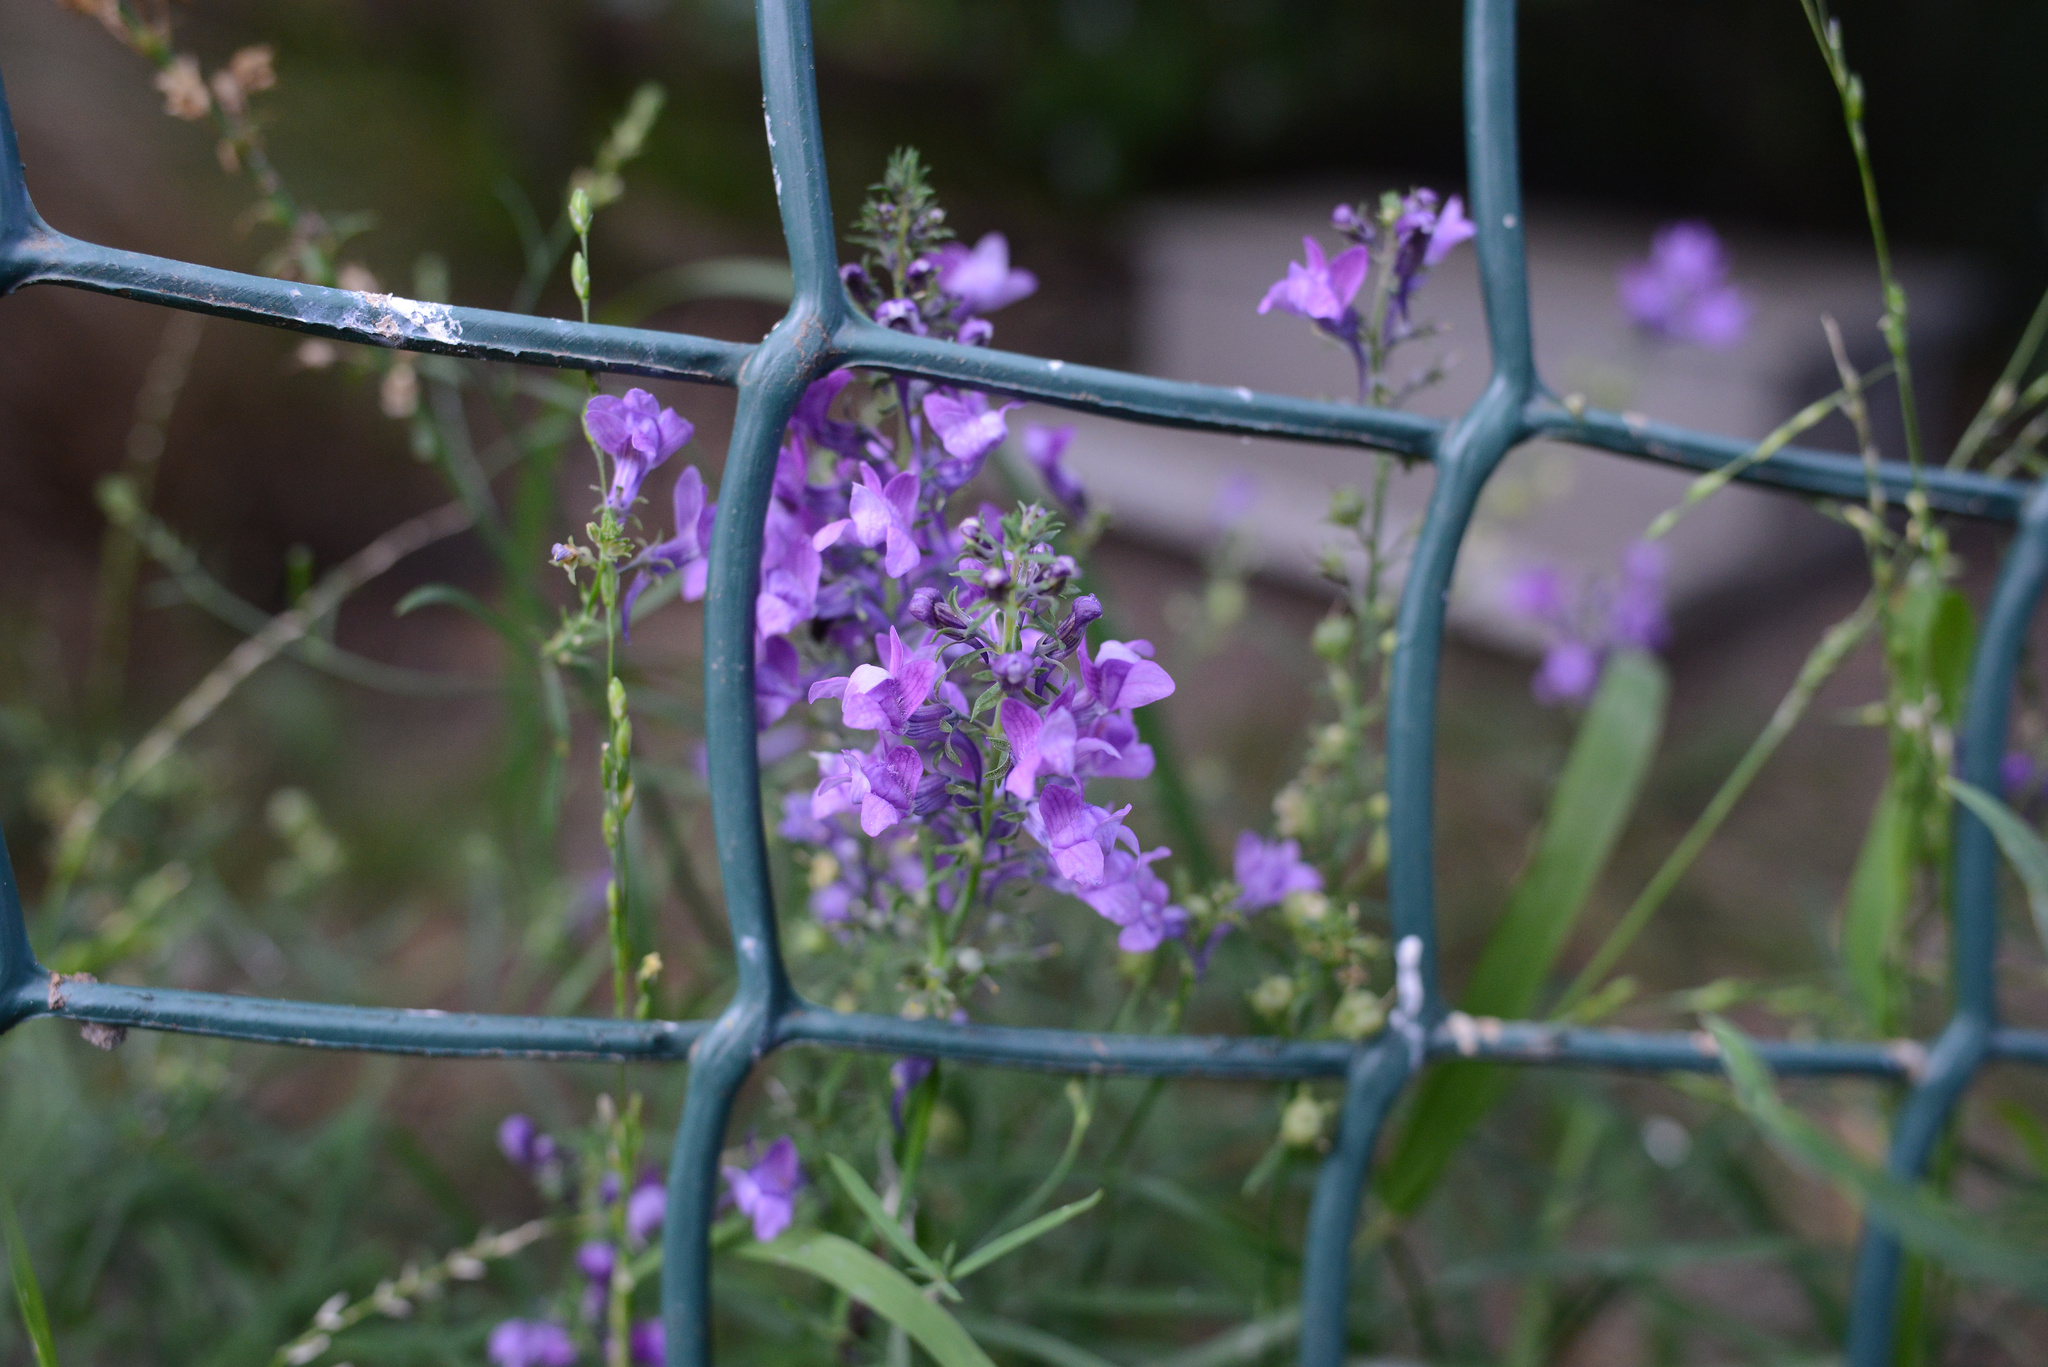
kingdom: Plantae
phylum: Tracheophyta
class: Magnoliopsida
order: Lamiales
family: Plantaginaceae
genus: Linaria
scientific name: Linaria purpurea
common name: Purple toadflax
